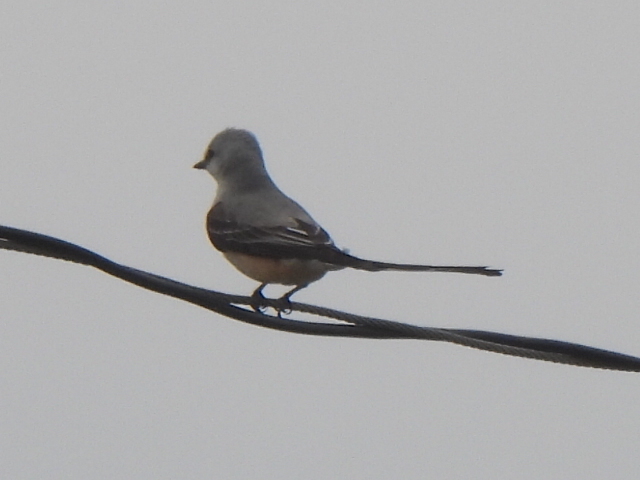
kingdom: Animalia
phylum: Chordata
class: Aves
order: Passeriformes
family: Tyrannidae
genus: Tyrannus
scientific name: Tyrannus forficatus
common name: Scissor-tailed flycatcher
